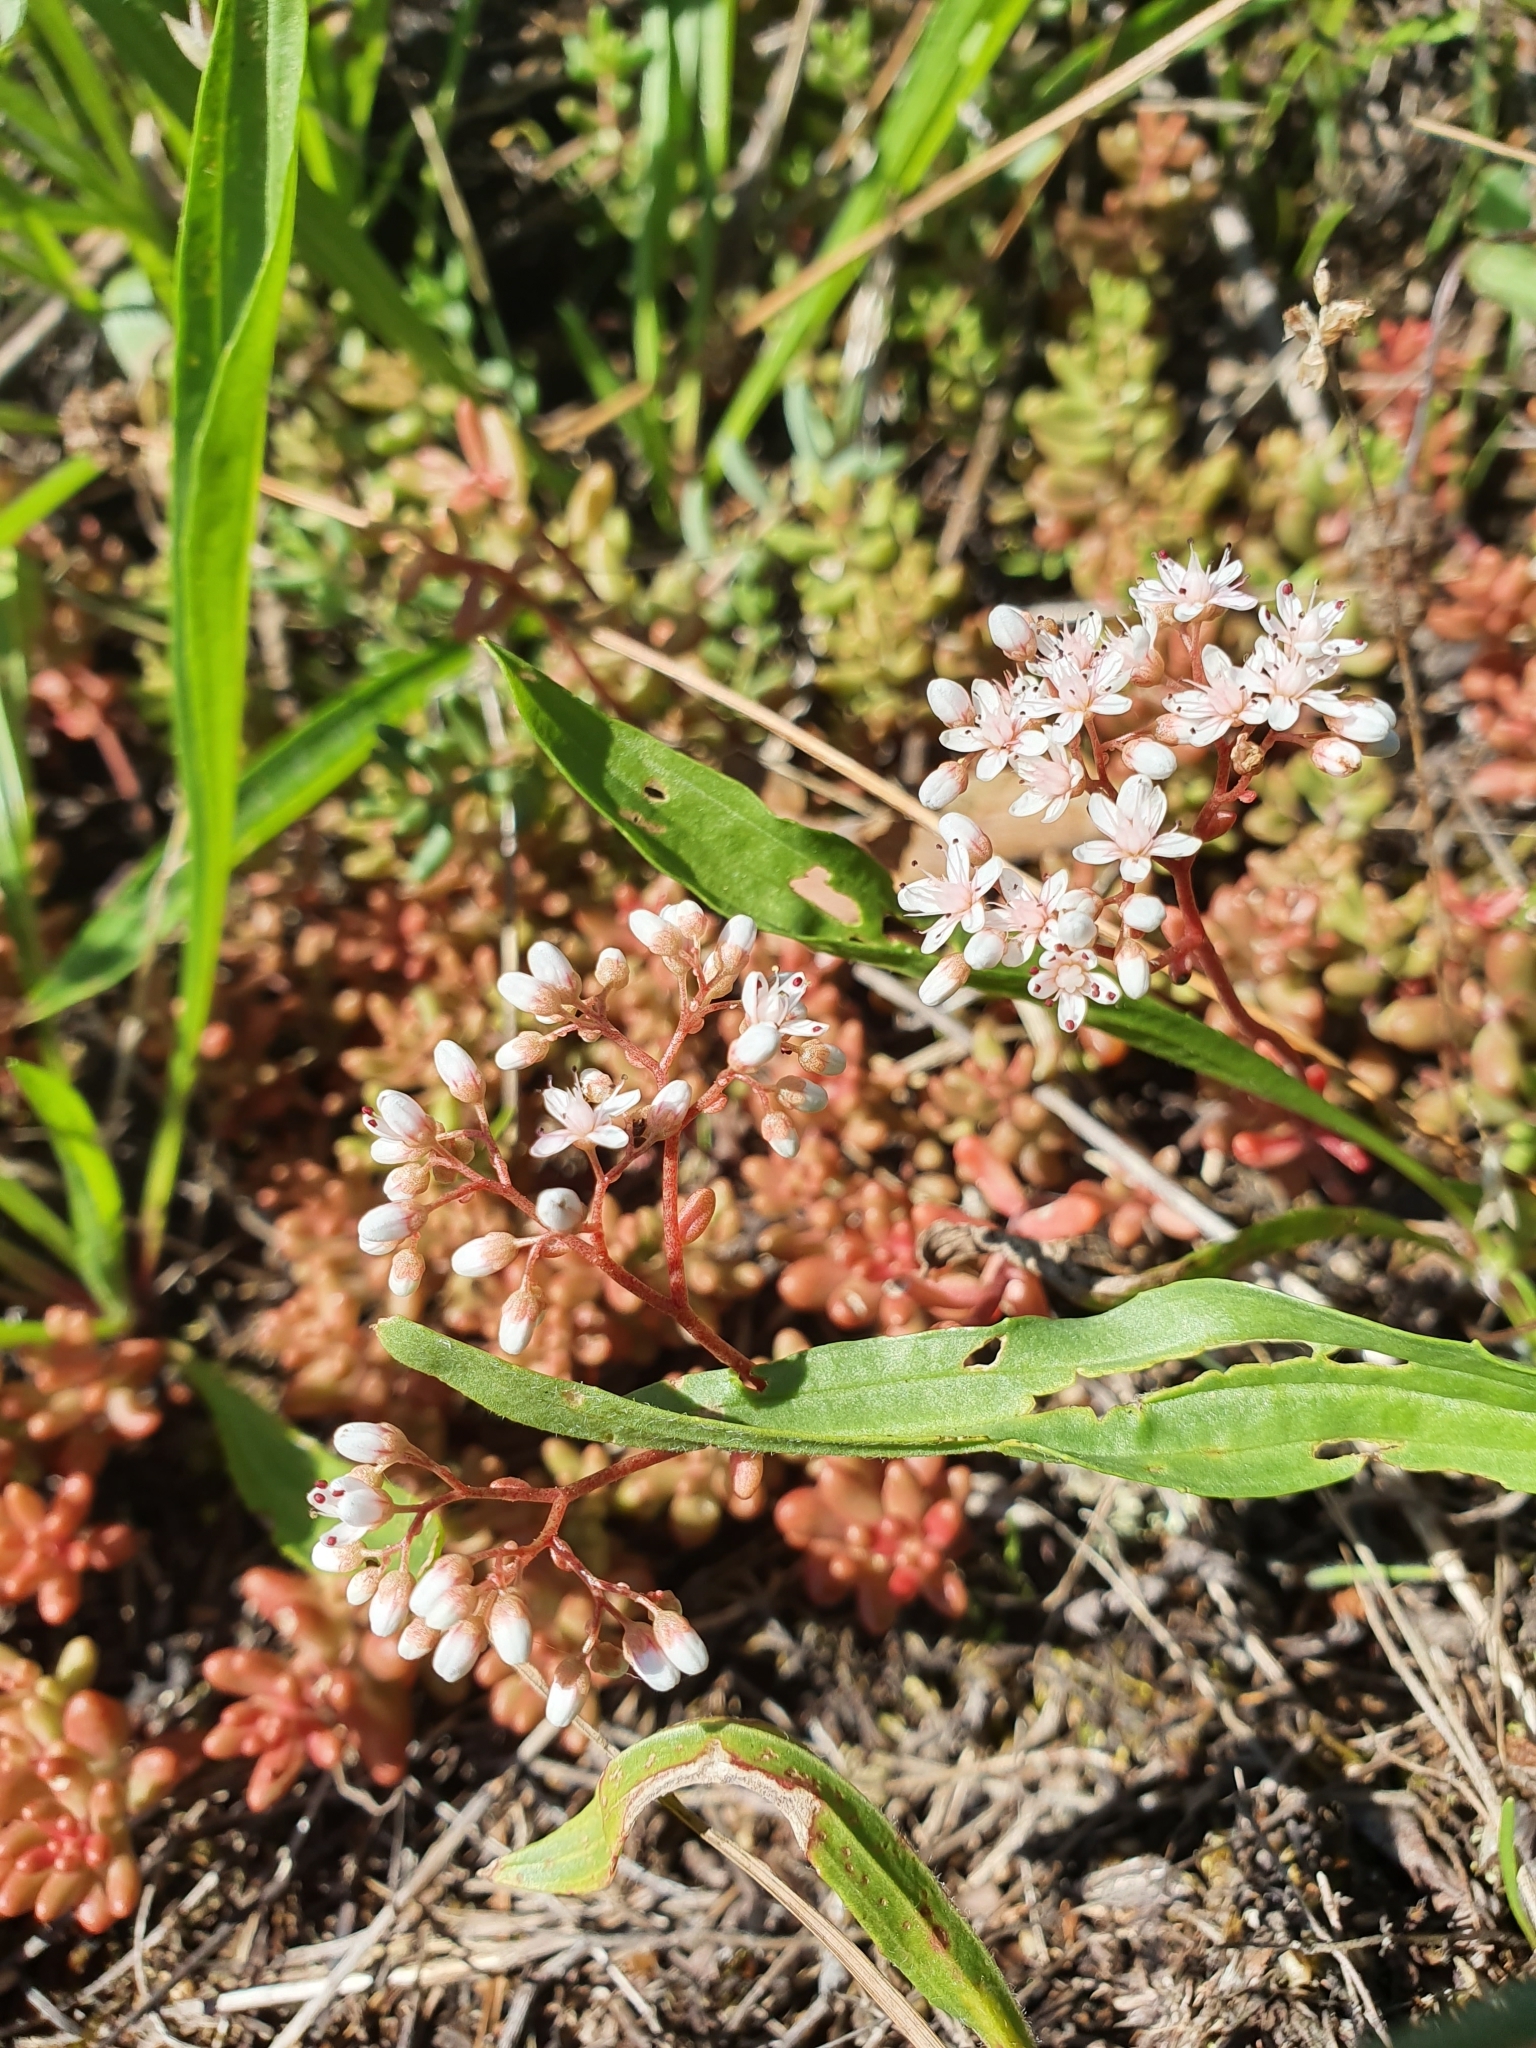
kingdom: Plantae
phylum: Tracheophyta
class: Magnoliopsida
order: Saxifragales
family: Crassulaceae
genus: Sedum
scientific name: Sedum album
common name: White stonecrop
